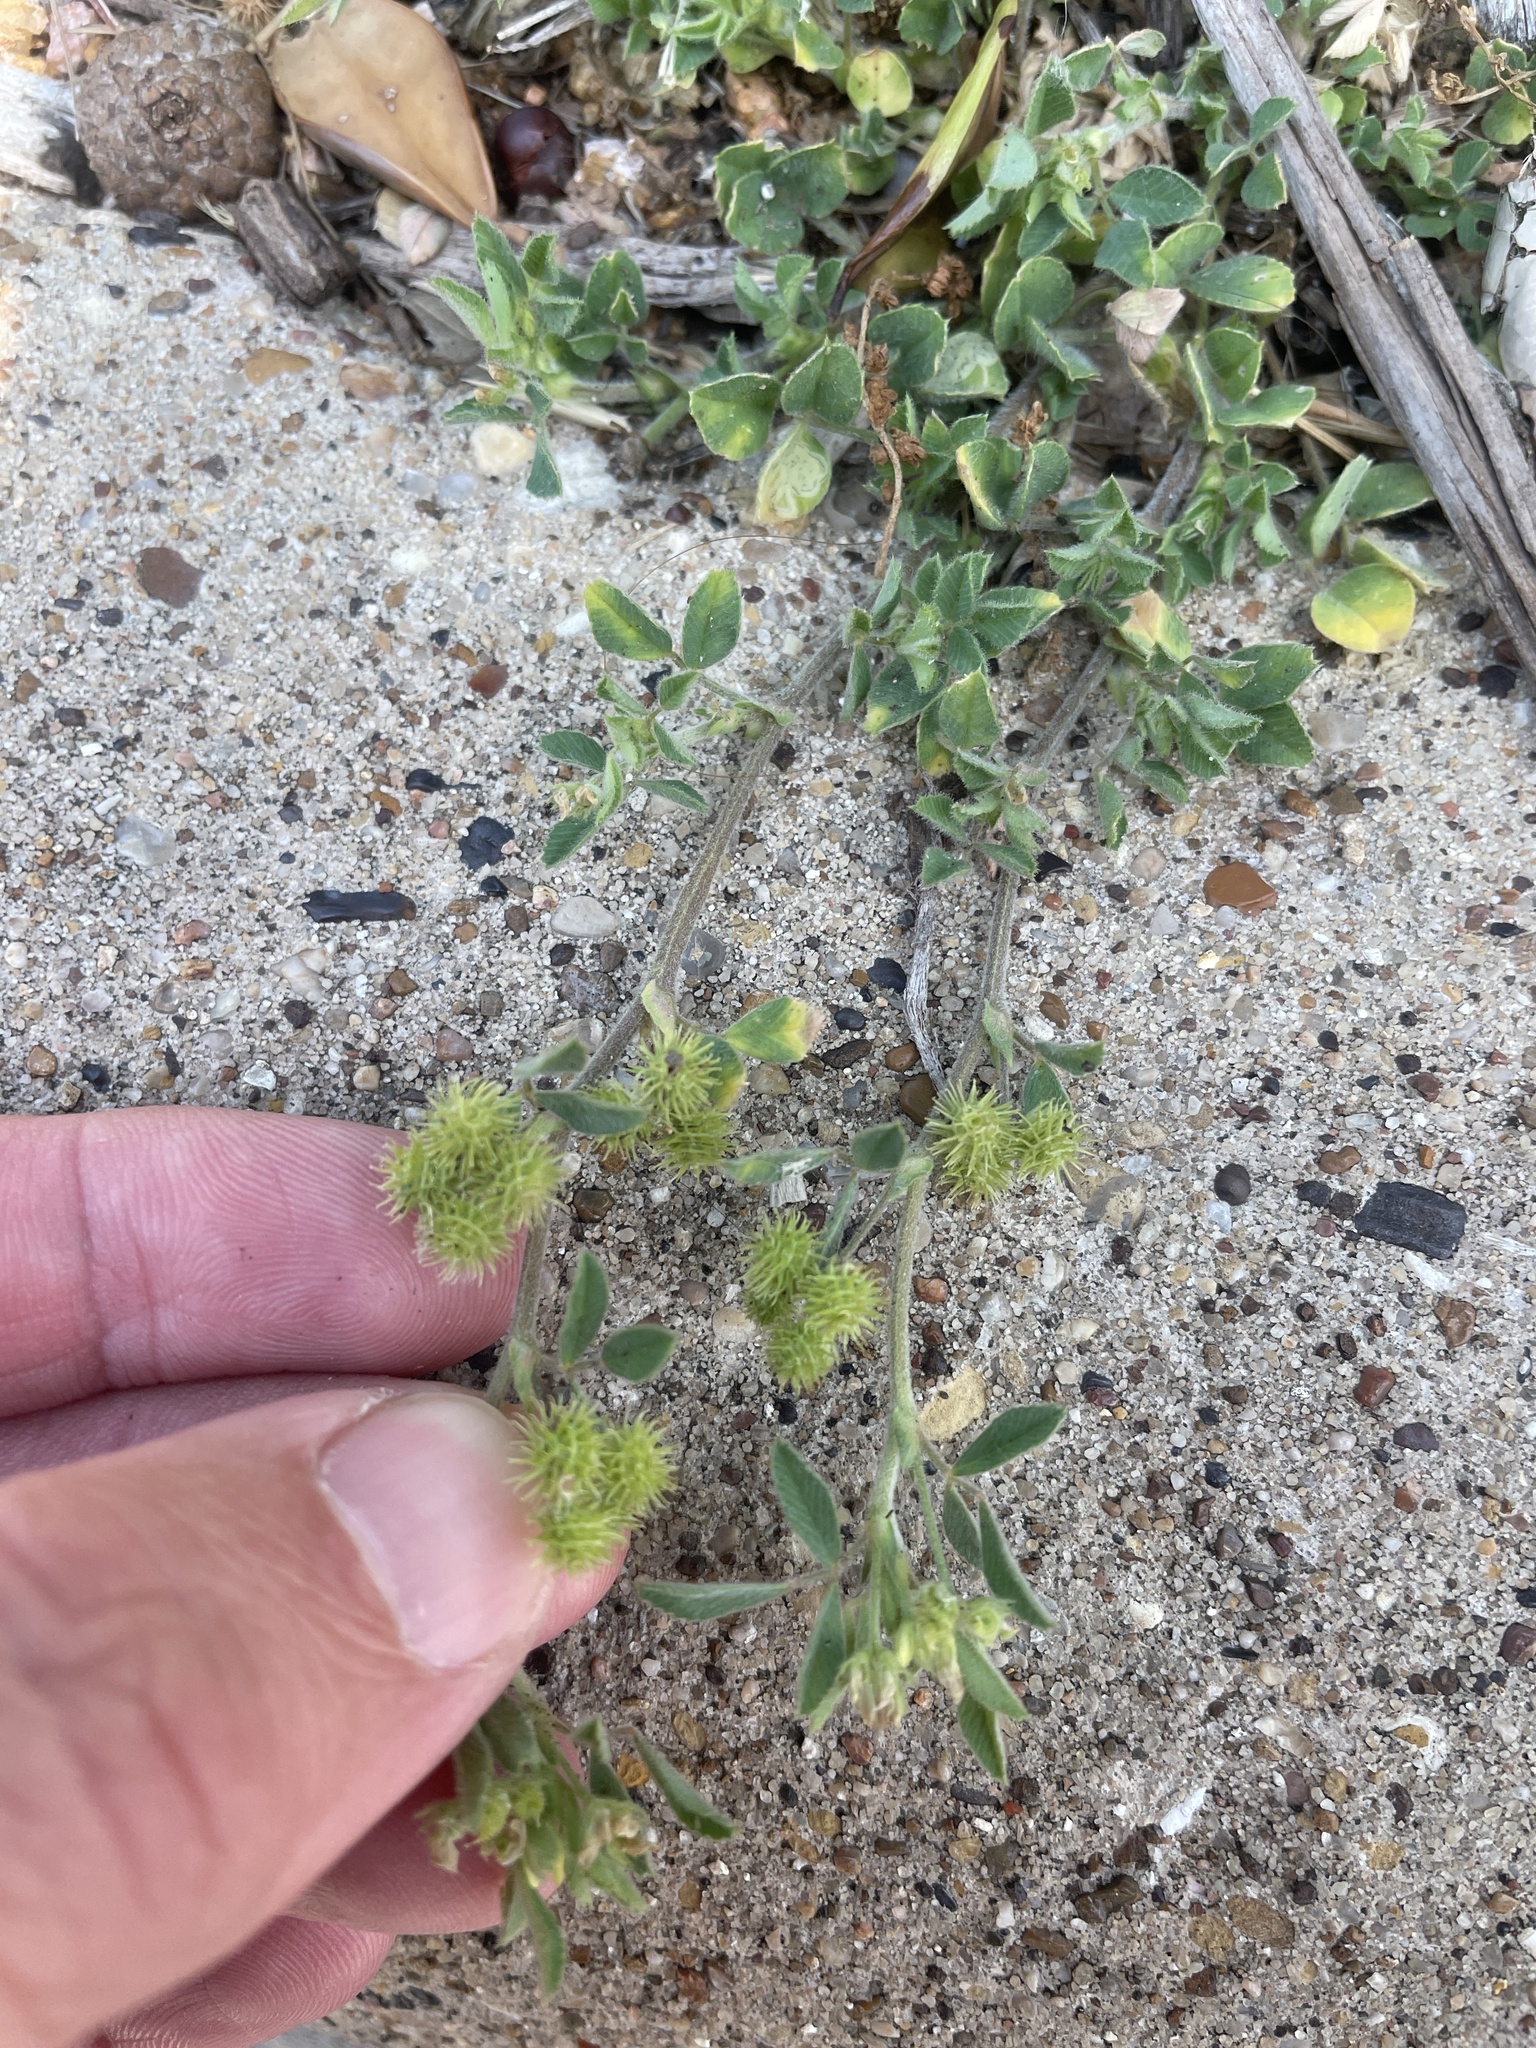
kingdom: Plantae
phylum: Tracheophyta
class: Magnoliopsida
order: Fabales
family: Fabaceae
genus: Medicago
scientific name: Medicago minima
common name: Little bur-clover
